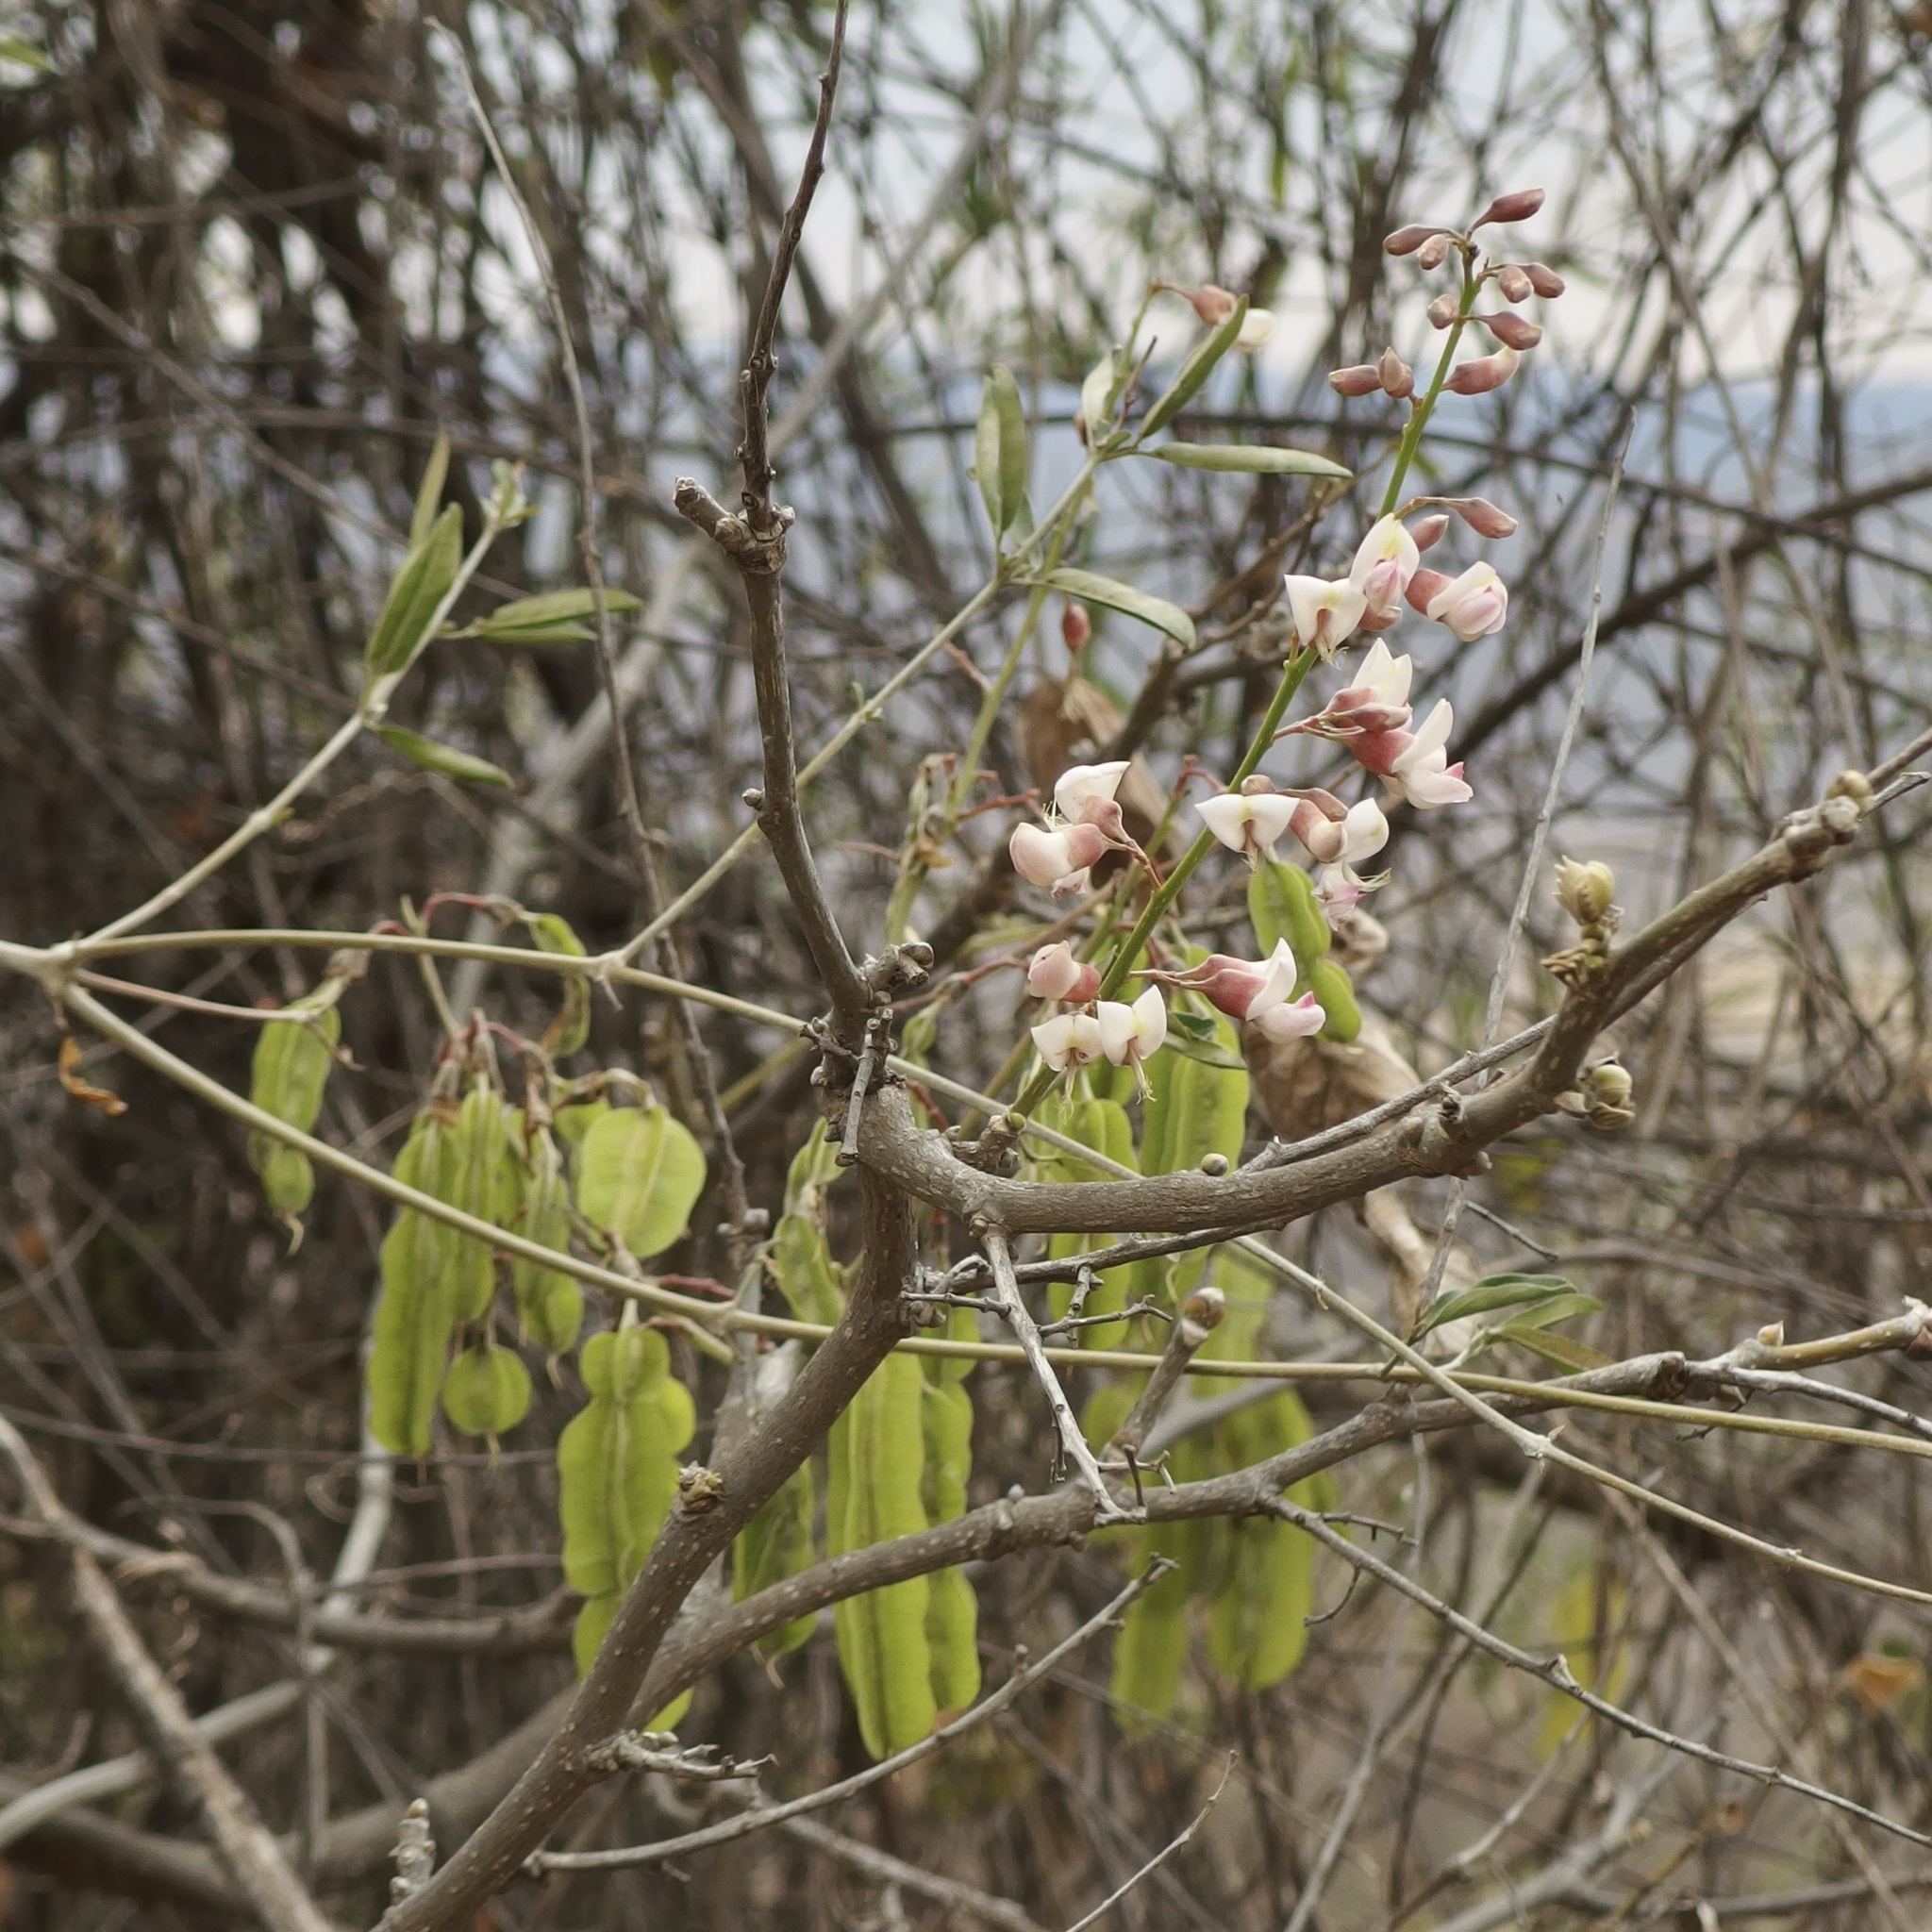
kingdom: Plantae
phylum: Tracheophyta
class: Magnoliopsida
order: Fabales
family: Fabaceae
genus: Piscidia
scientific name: Piscidia carthagenensis
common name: Stinkwood
